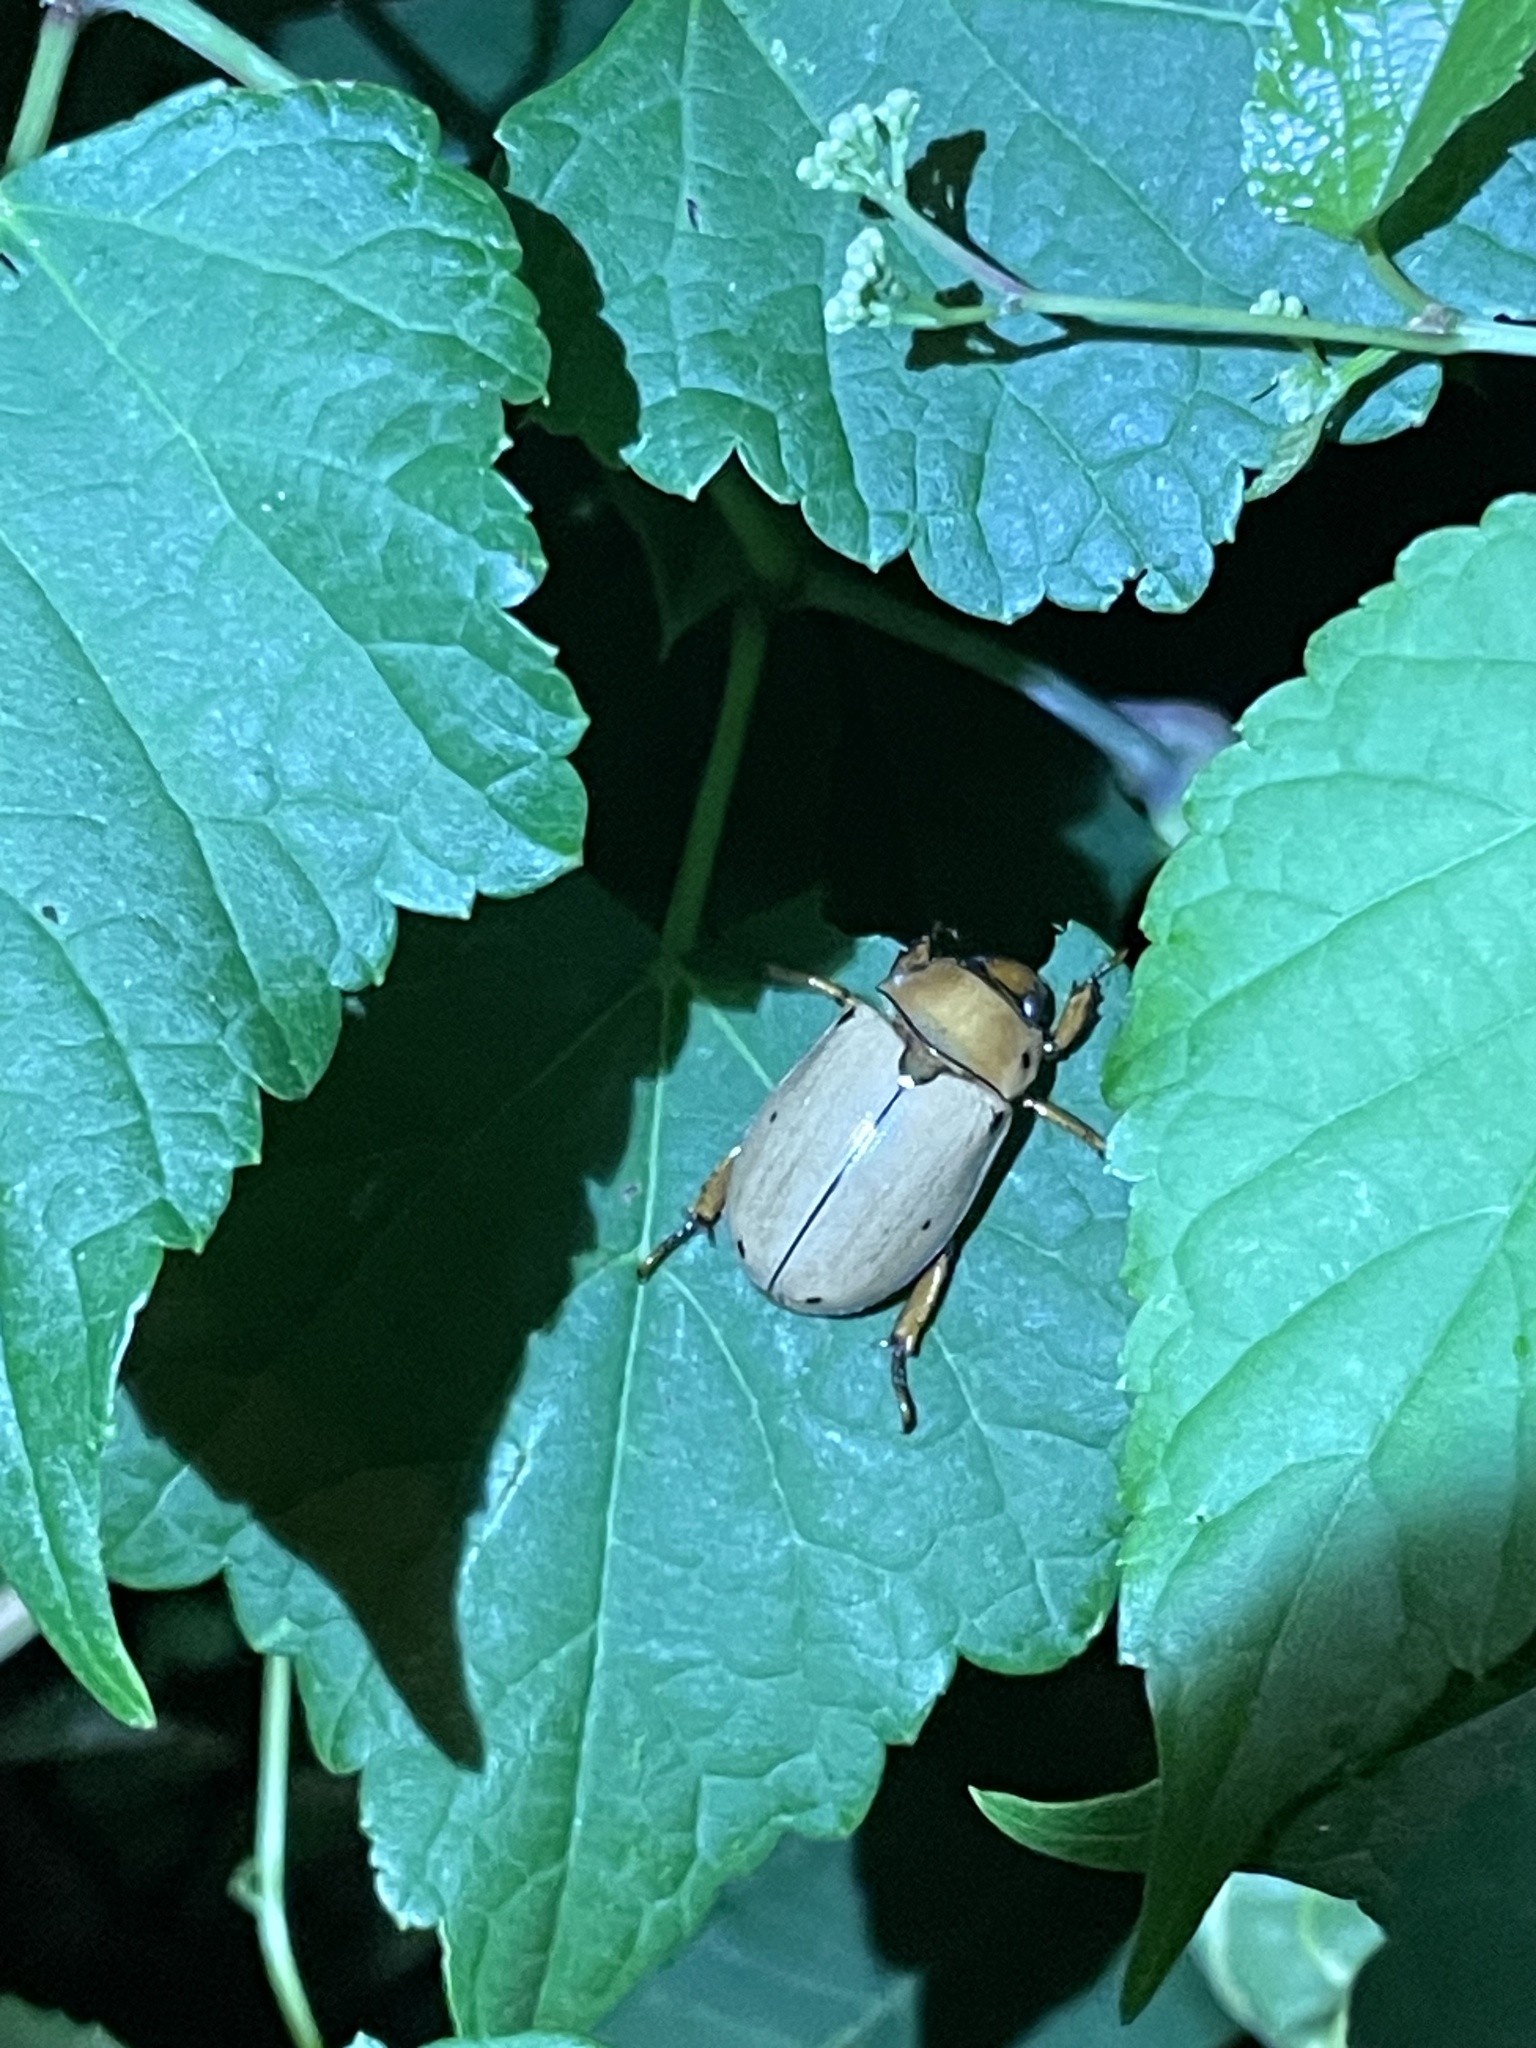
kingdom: Animalia
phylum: Arthropoda
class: Insecta
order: Coleoptera
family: Scarabaeidae
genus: Pelidnota
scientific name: Pelidnota punctata
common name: Grapevine beetle
